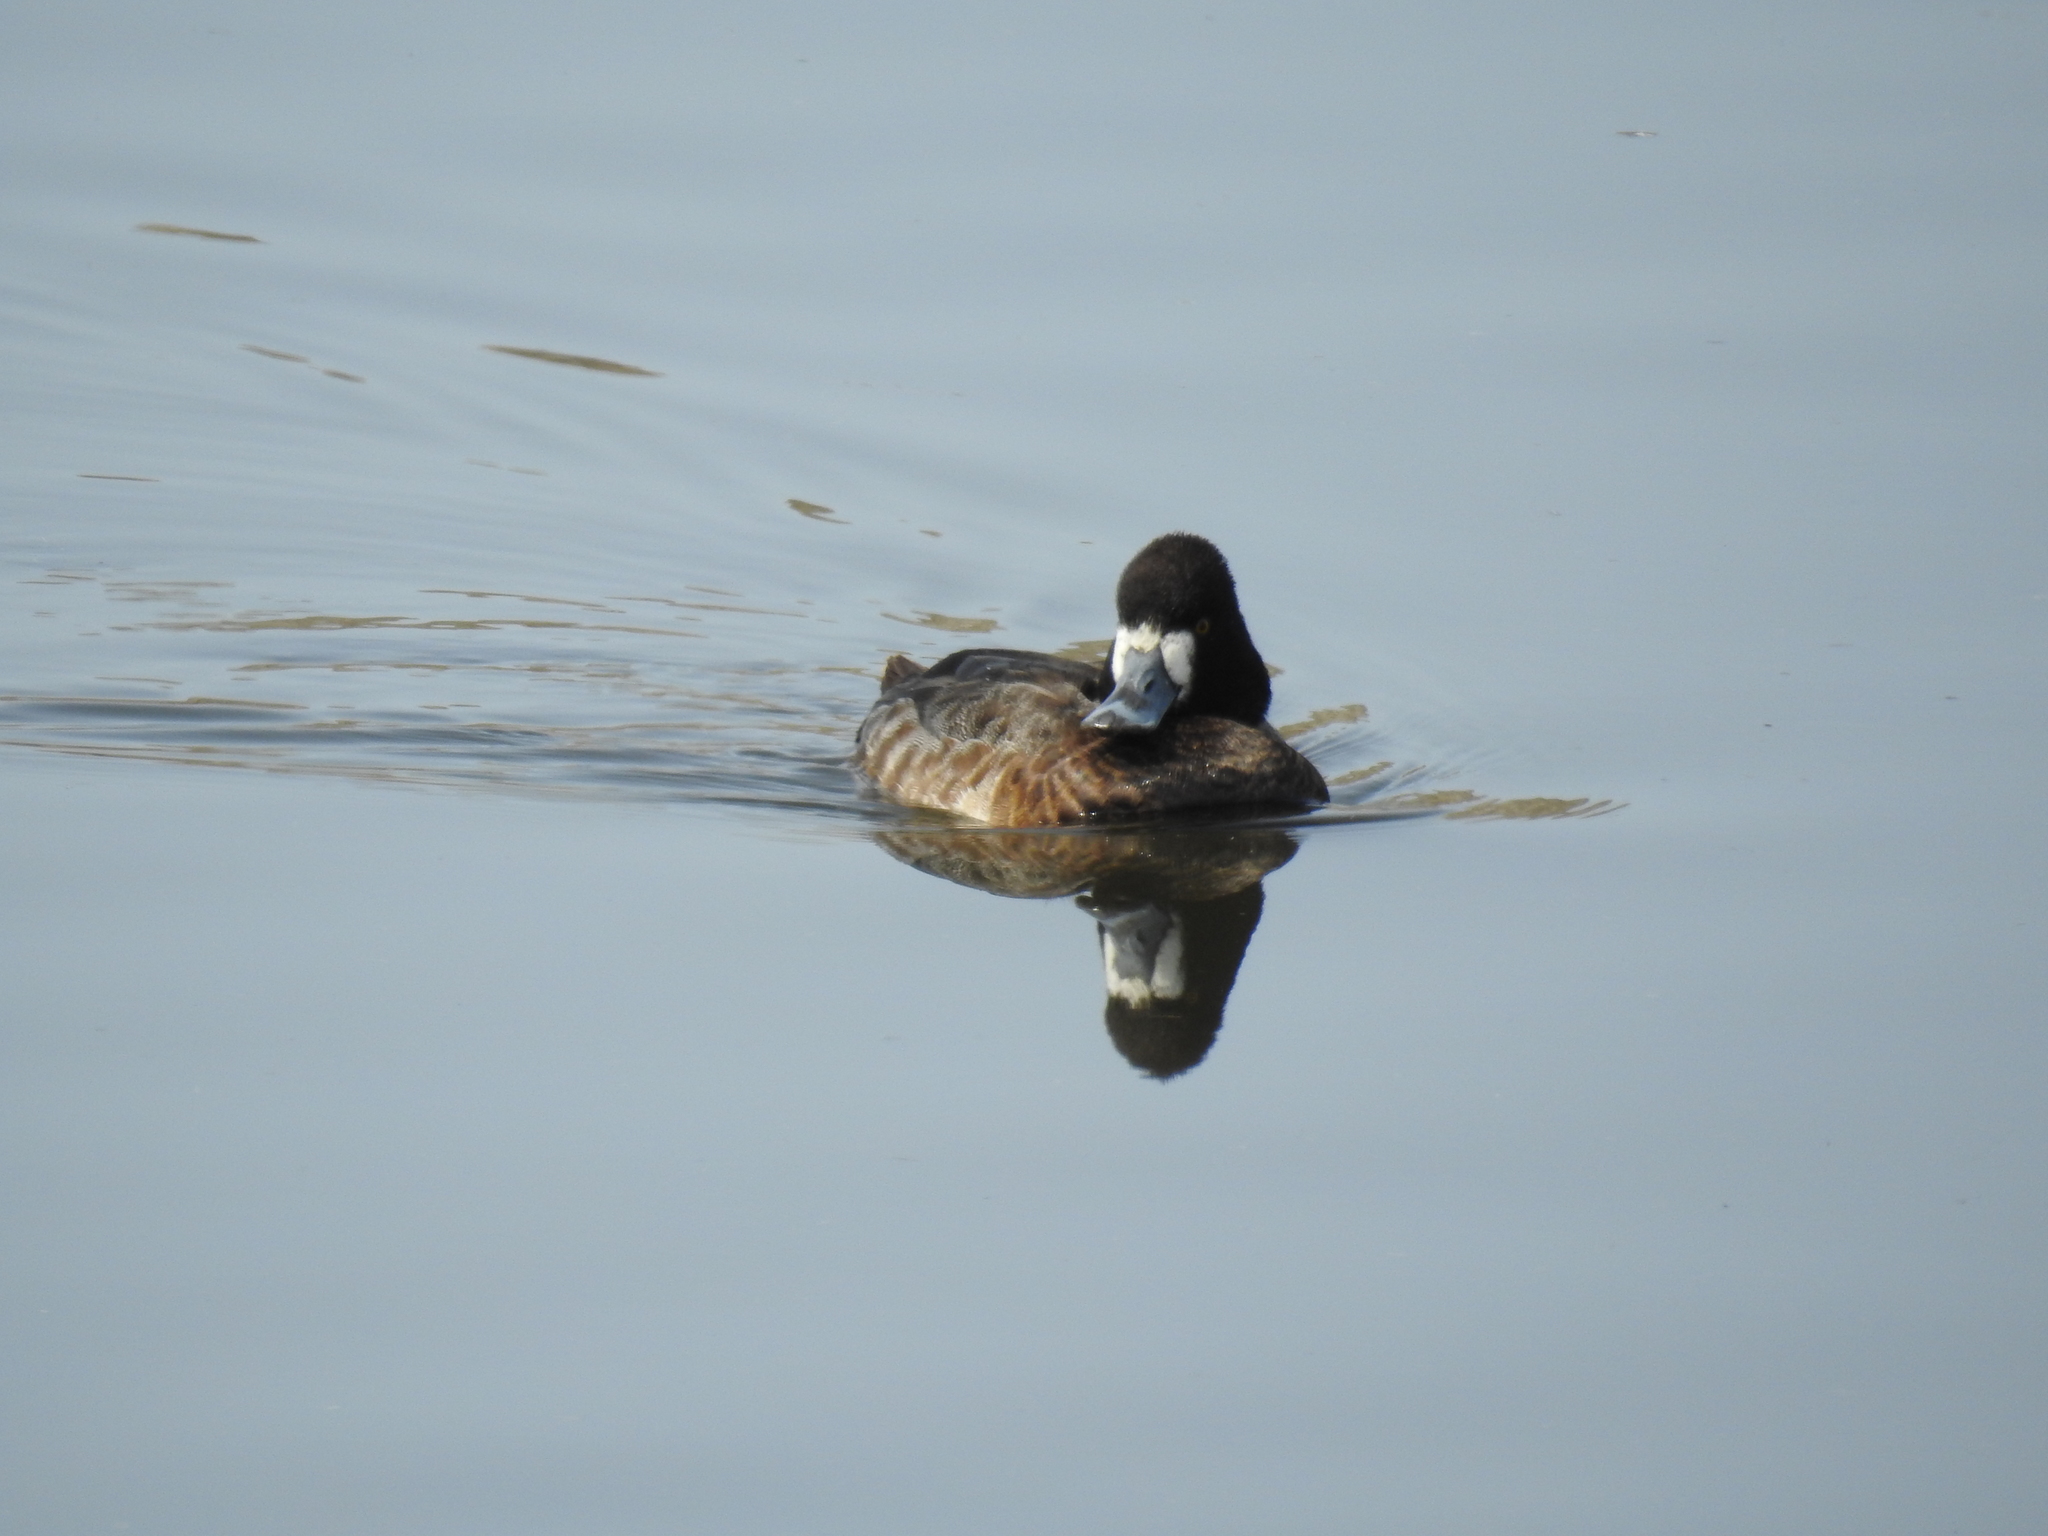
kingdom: Animalia
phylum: Chordata
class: Aves
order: Anseriformes
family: Anatidae
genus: Aythya
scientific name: Aythya affinis
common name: Lesser scaup
